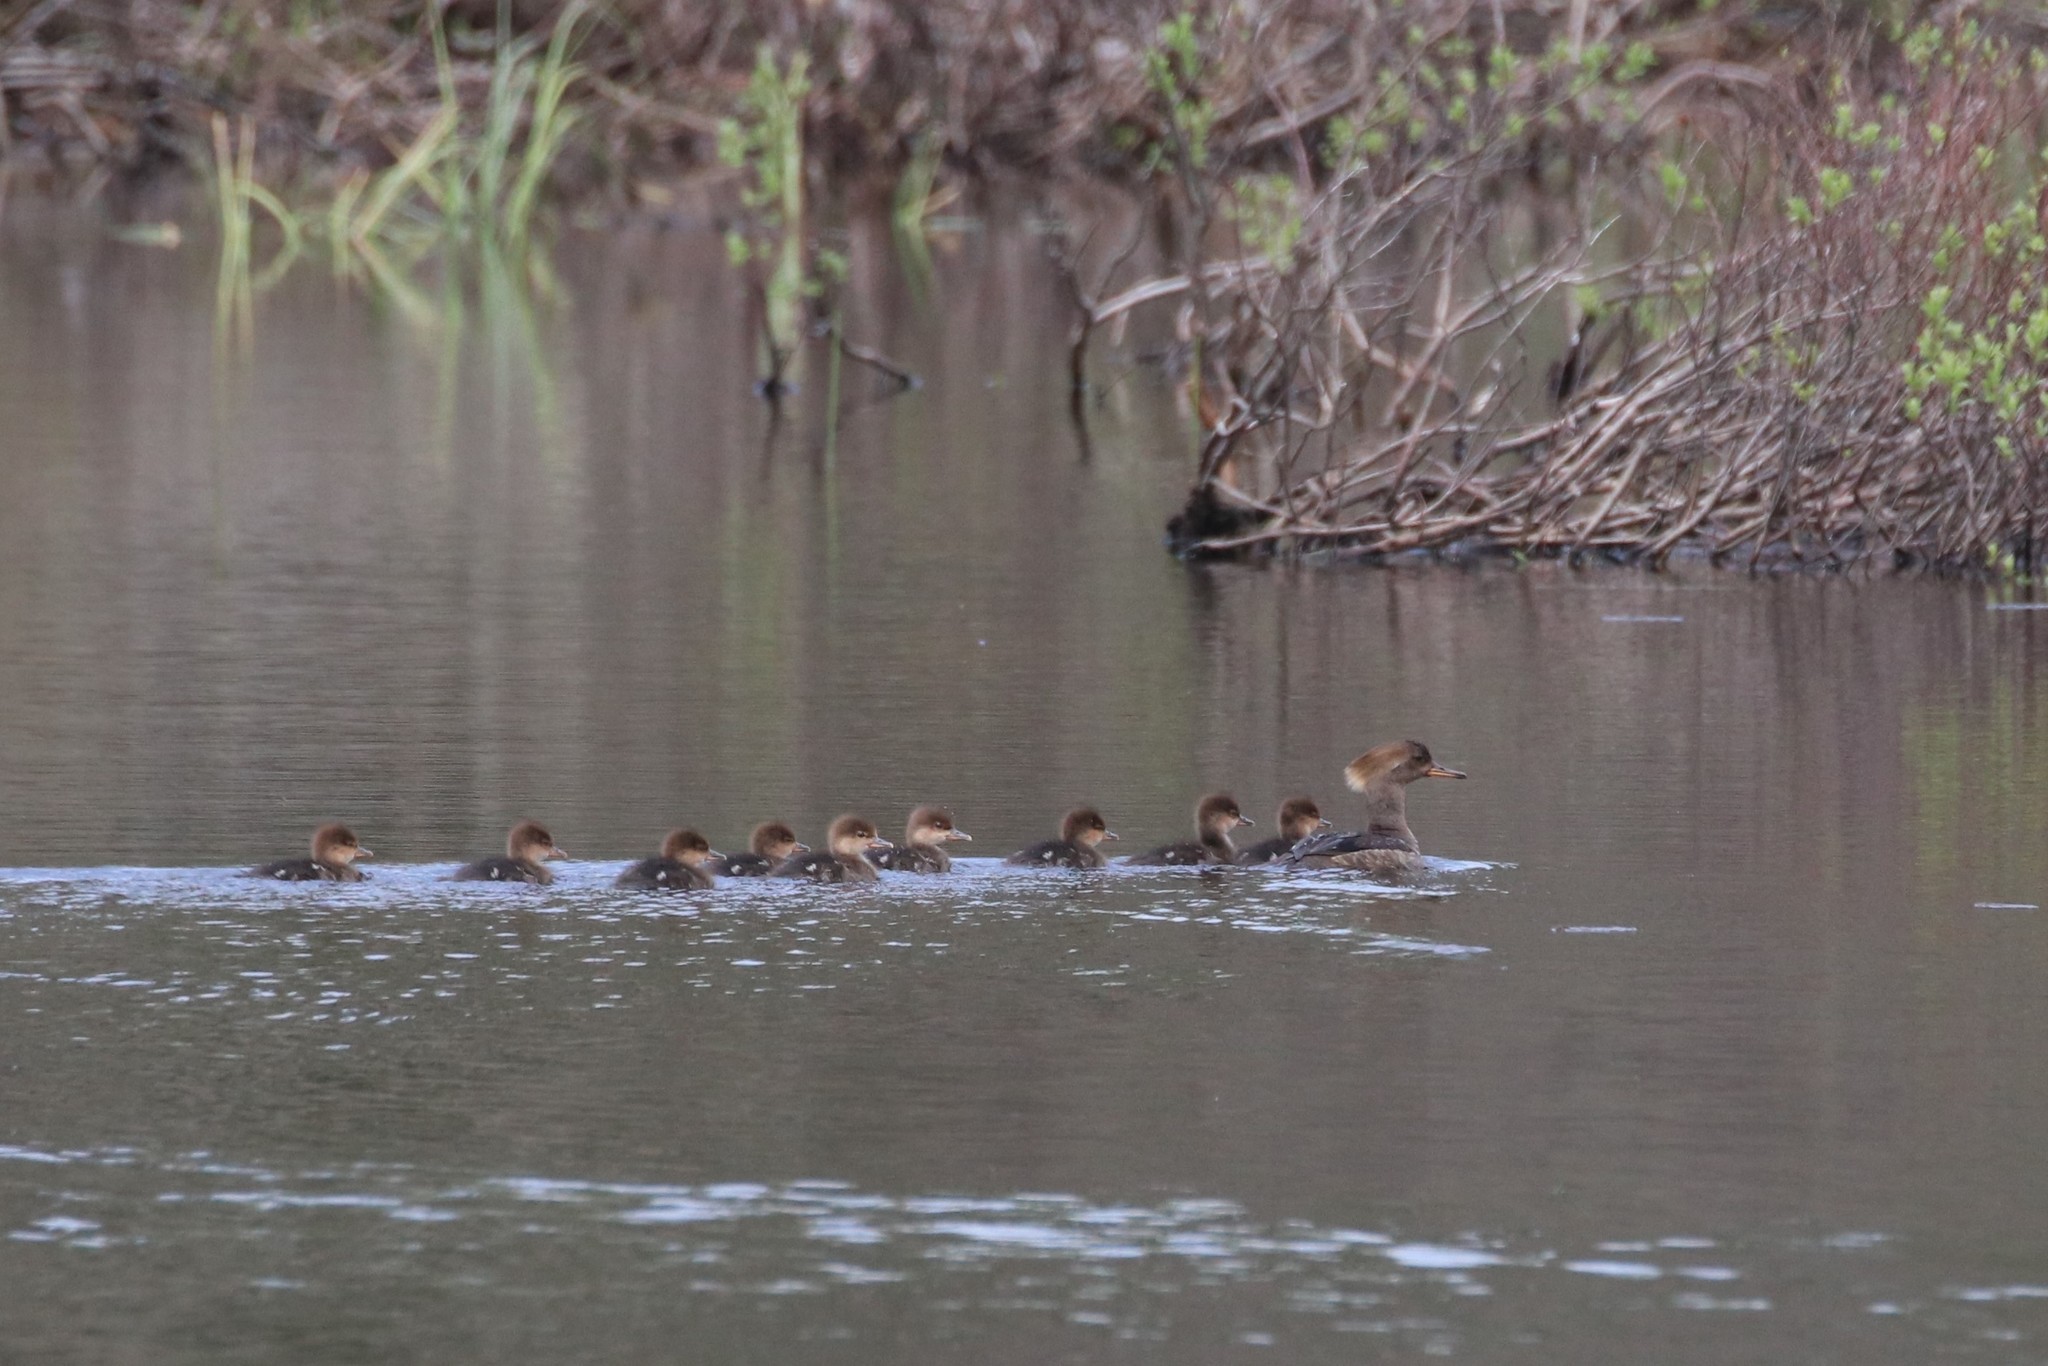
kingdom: Animalia
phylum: Chordata
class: Aves
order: Anseriformes
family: Anatidae
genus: Lophodytes
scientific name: Lophodytes cucullatus
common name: Hooded merganser
